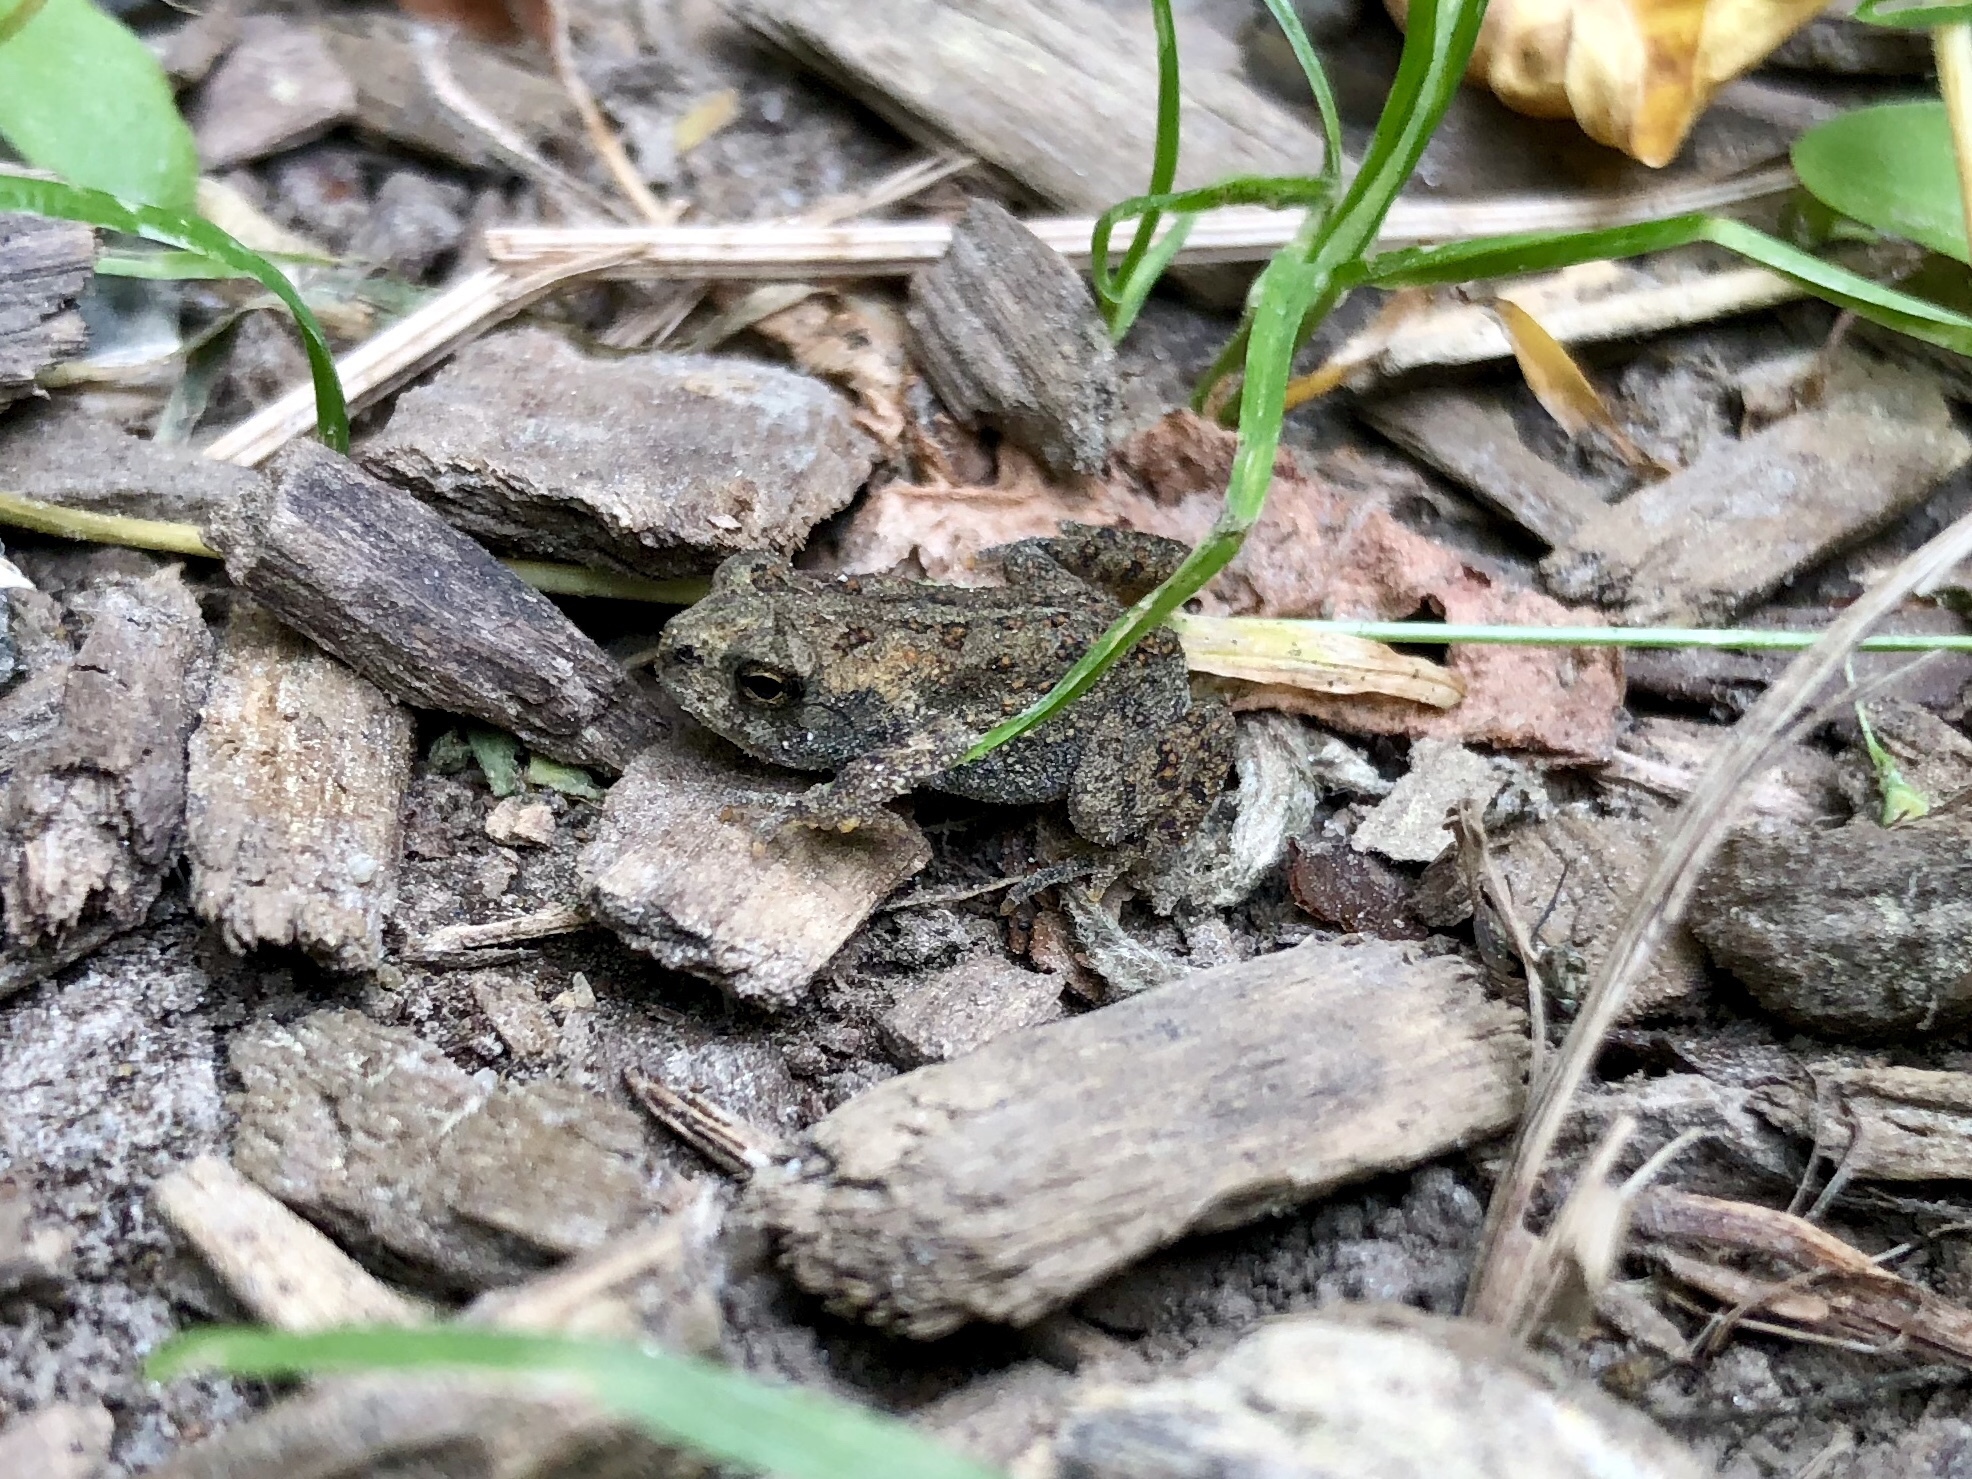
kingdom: Animalia
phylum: Chordata
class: Amphibia
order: Anura
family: Bufonidae
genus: Anaxyrus
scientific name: Anaxyrus
